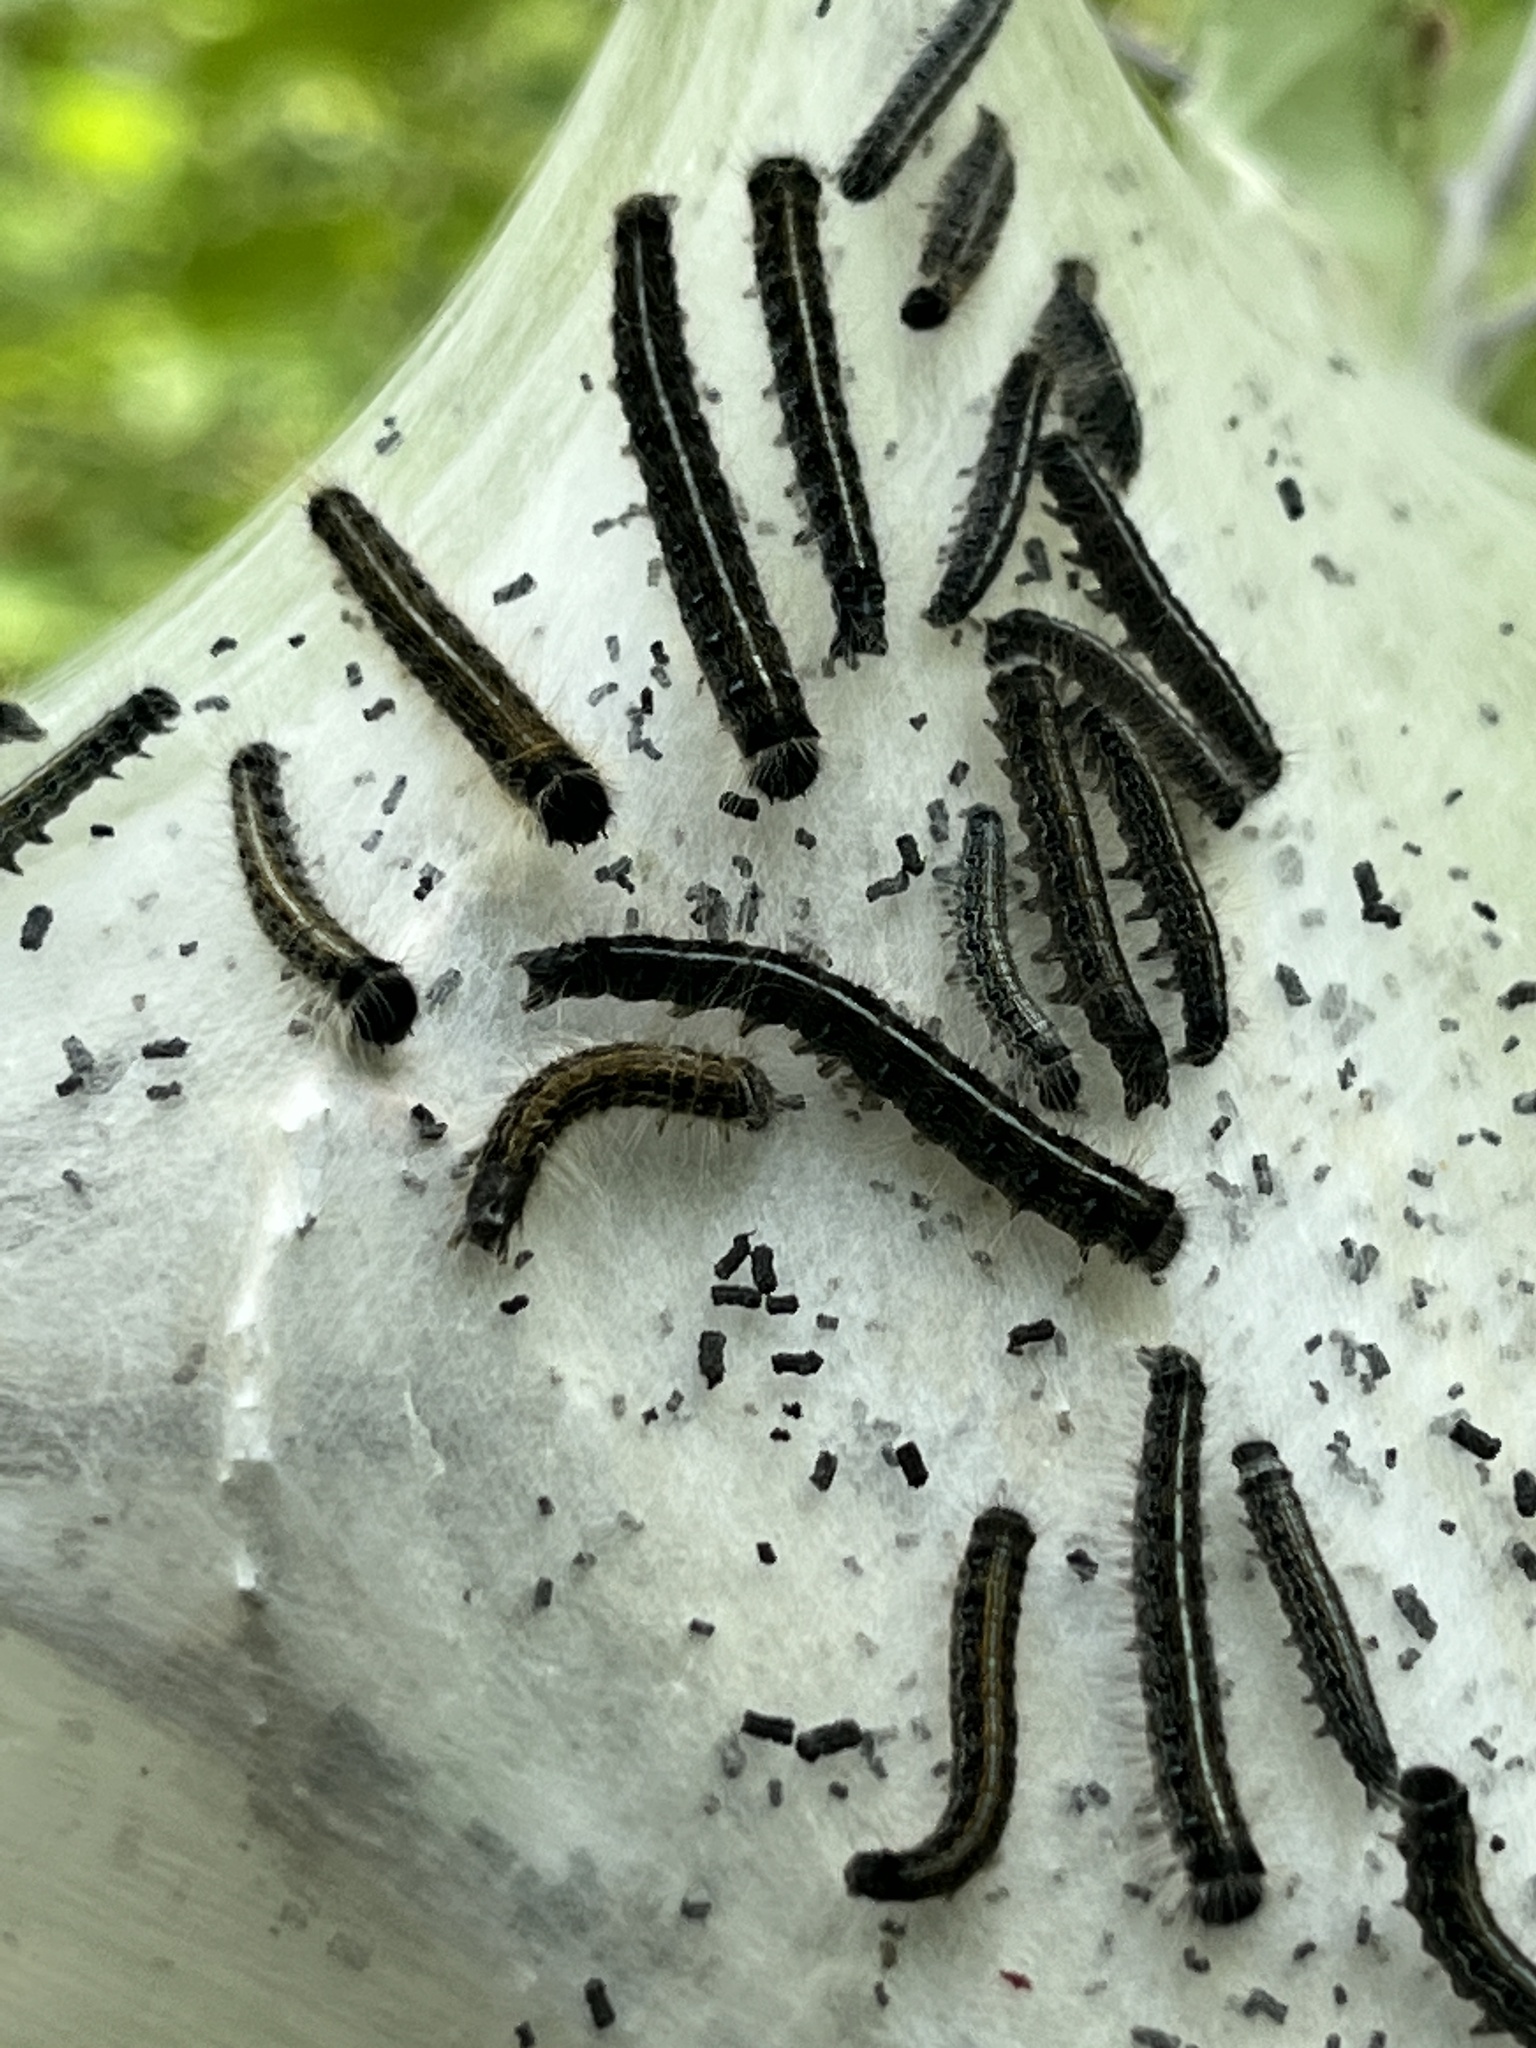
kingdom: Animalia
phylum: Arthropoda
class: Insecta
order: Lepidoptera
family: Lasiocampidae
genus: Malacosoma
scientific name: Malacosoma americana
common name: Eastern tent caterpillar moth
